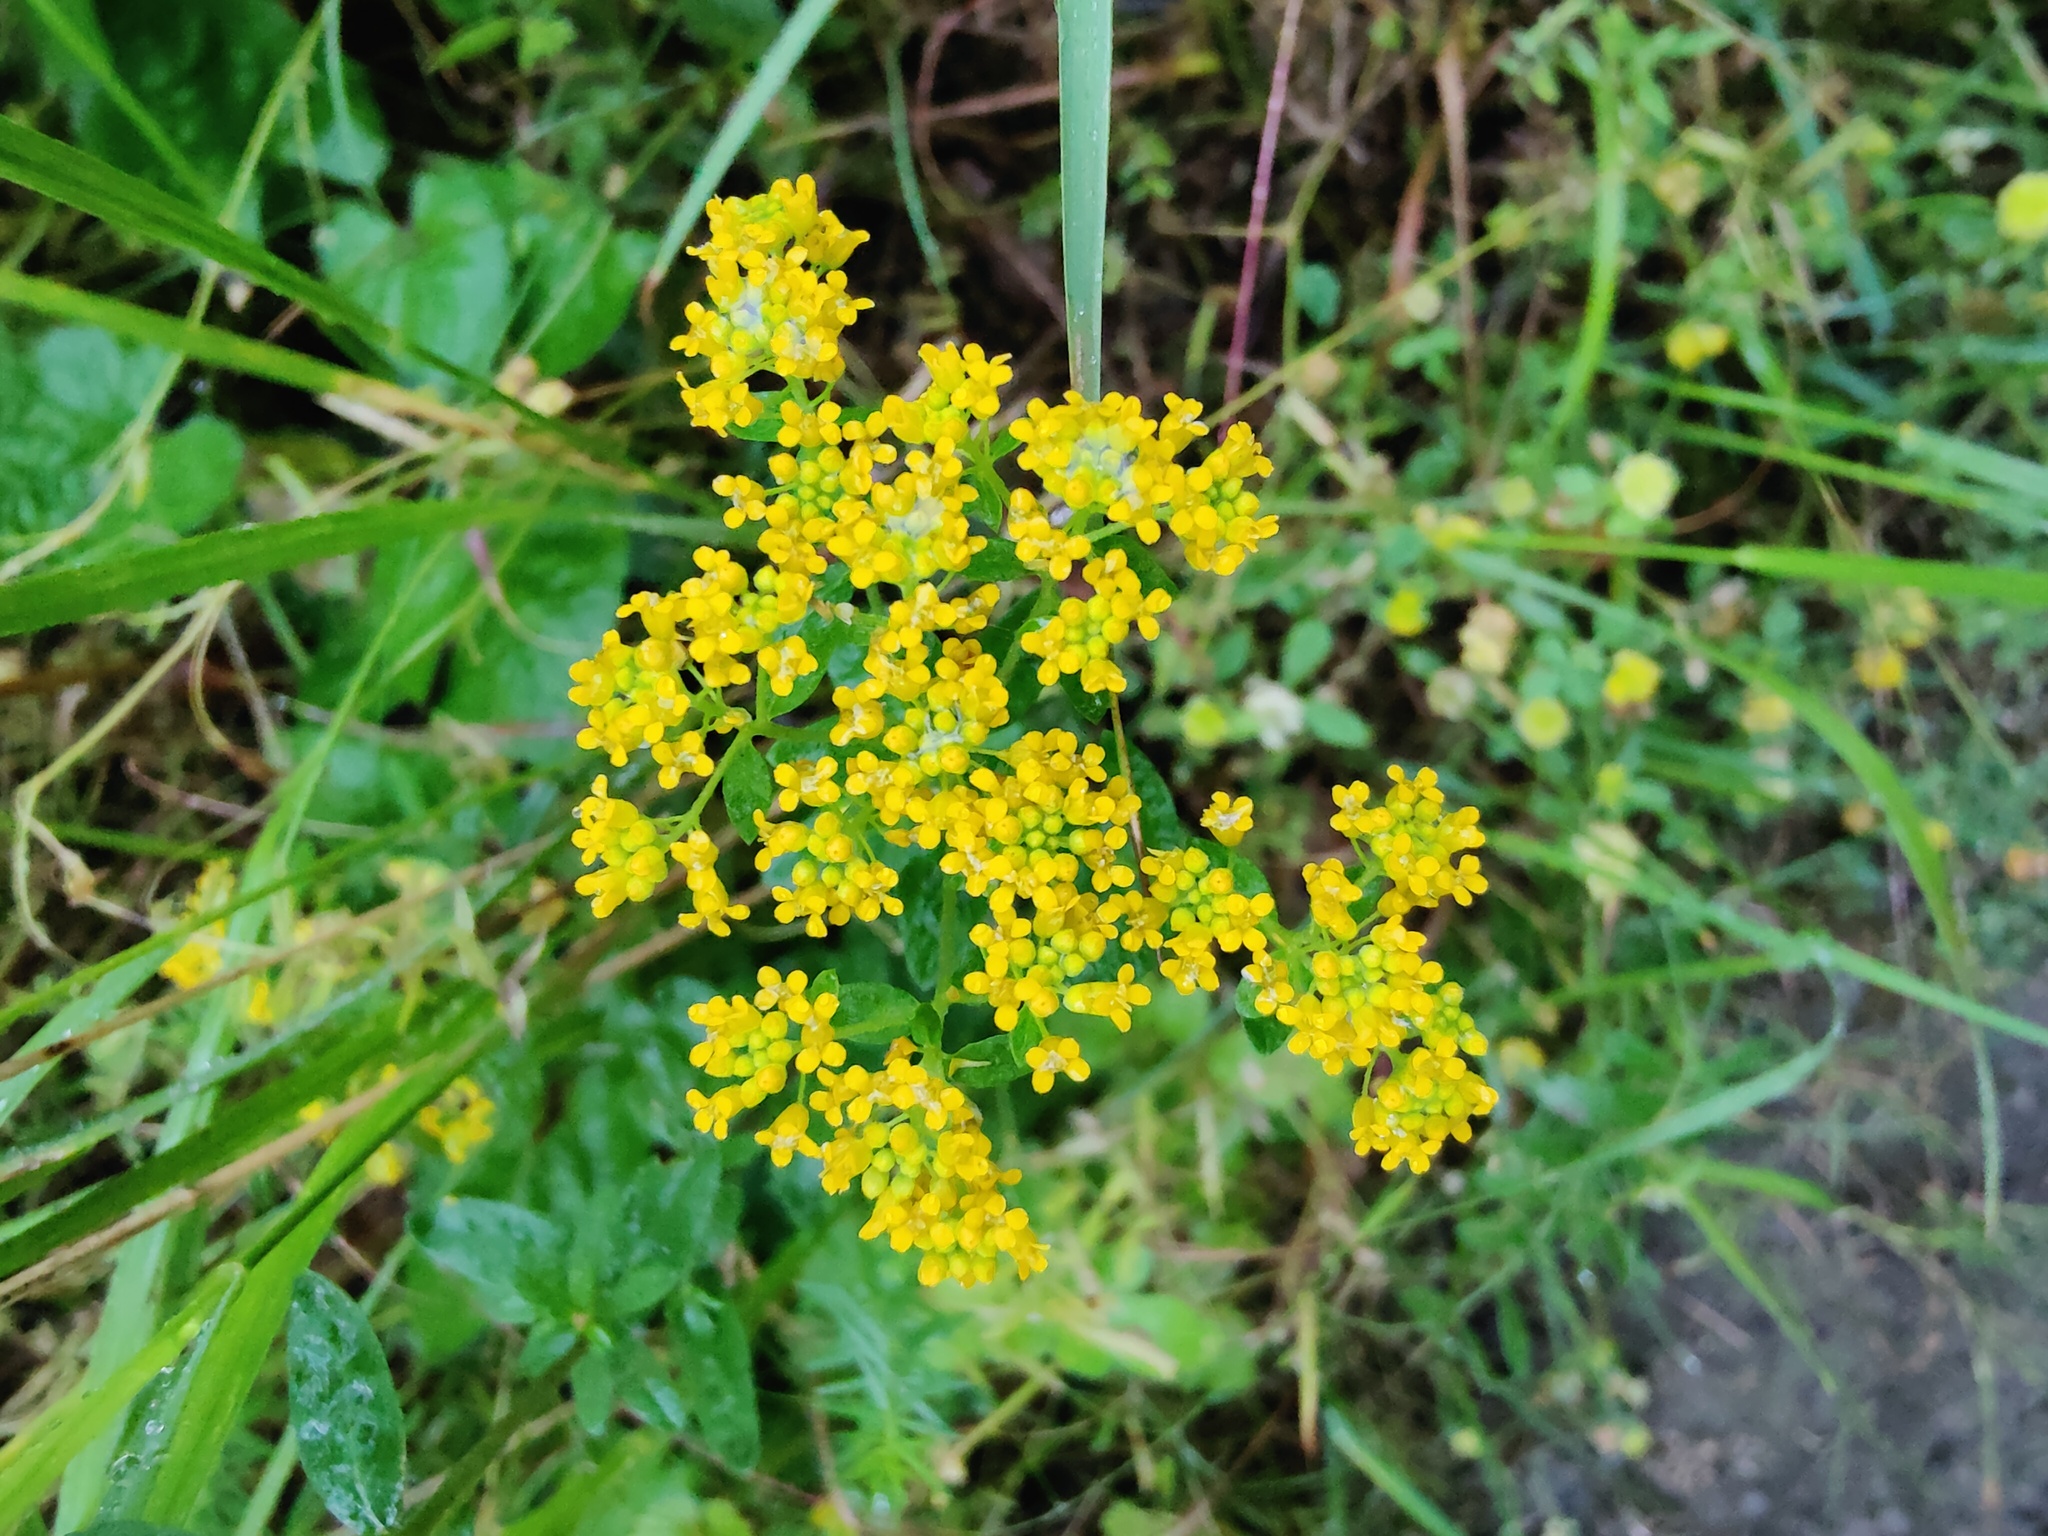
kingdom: Plantae
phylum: Tracheophyta
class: Magnoliopsida
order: Brassicales
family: Brassicaceae
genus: Odontarrhena
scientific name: Odontarrhena muralis
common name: Rock alyssum
